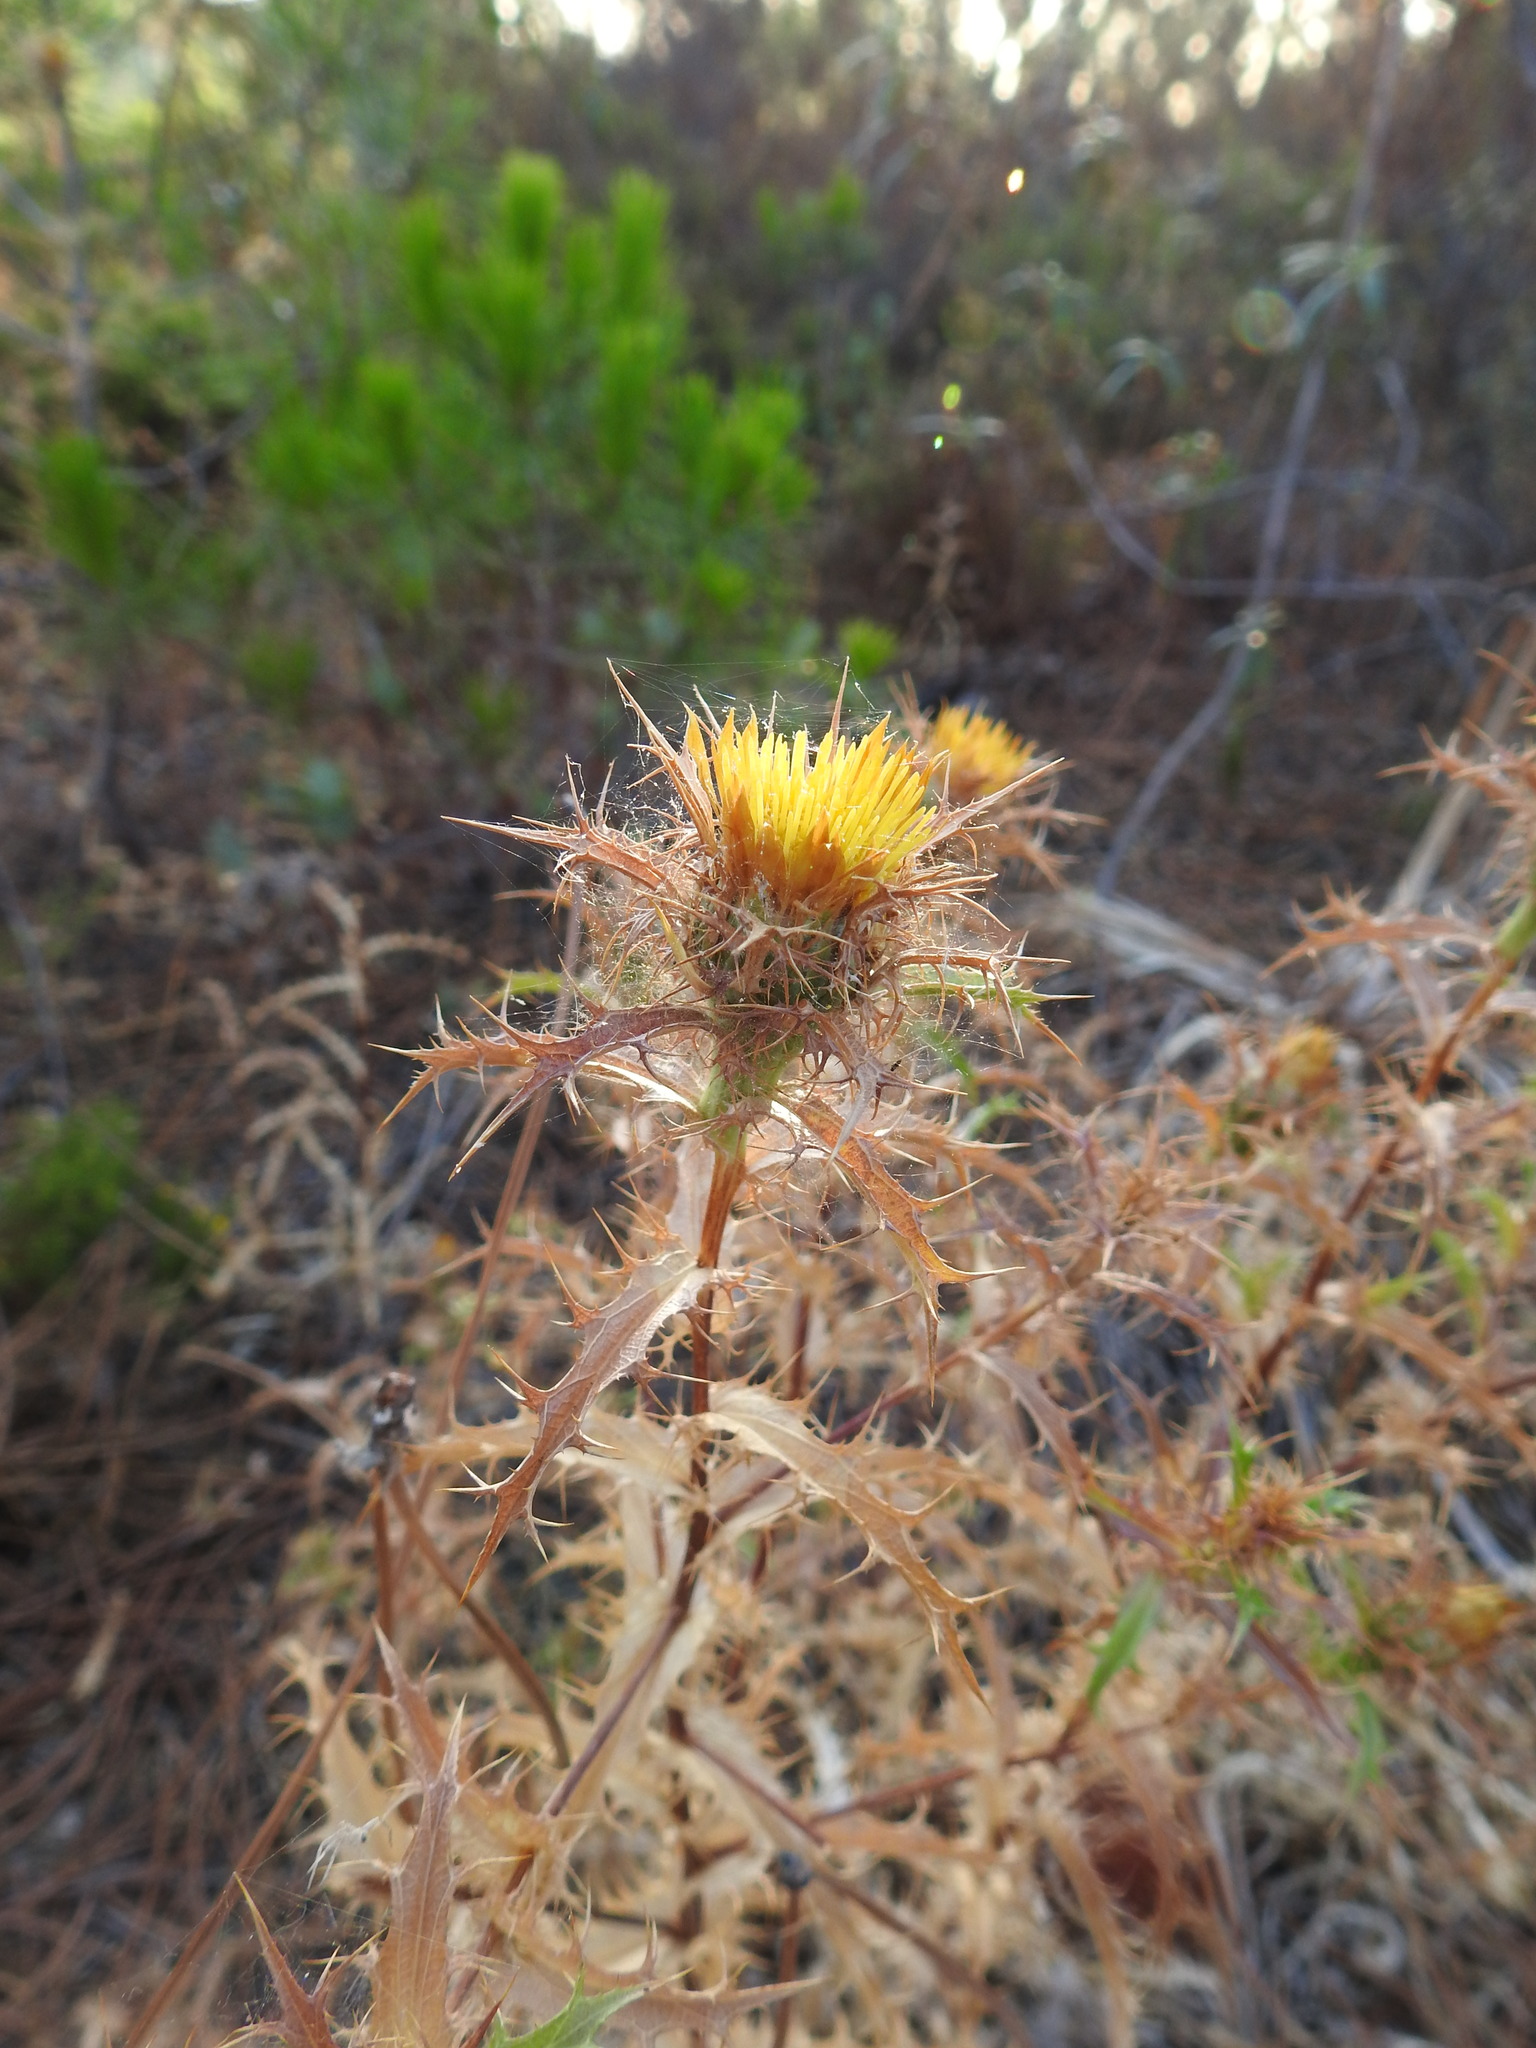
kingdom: Plantae
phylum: Tracheophyta
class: Magnoliopsida
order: Asterales
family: Asteraceae
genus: Carlina
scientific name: Carlina hispanica
